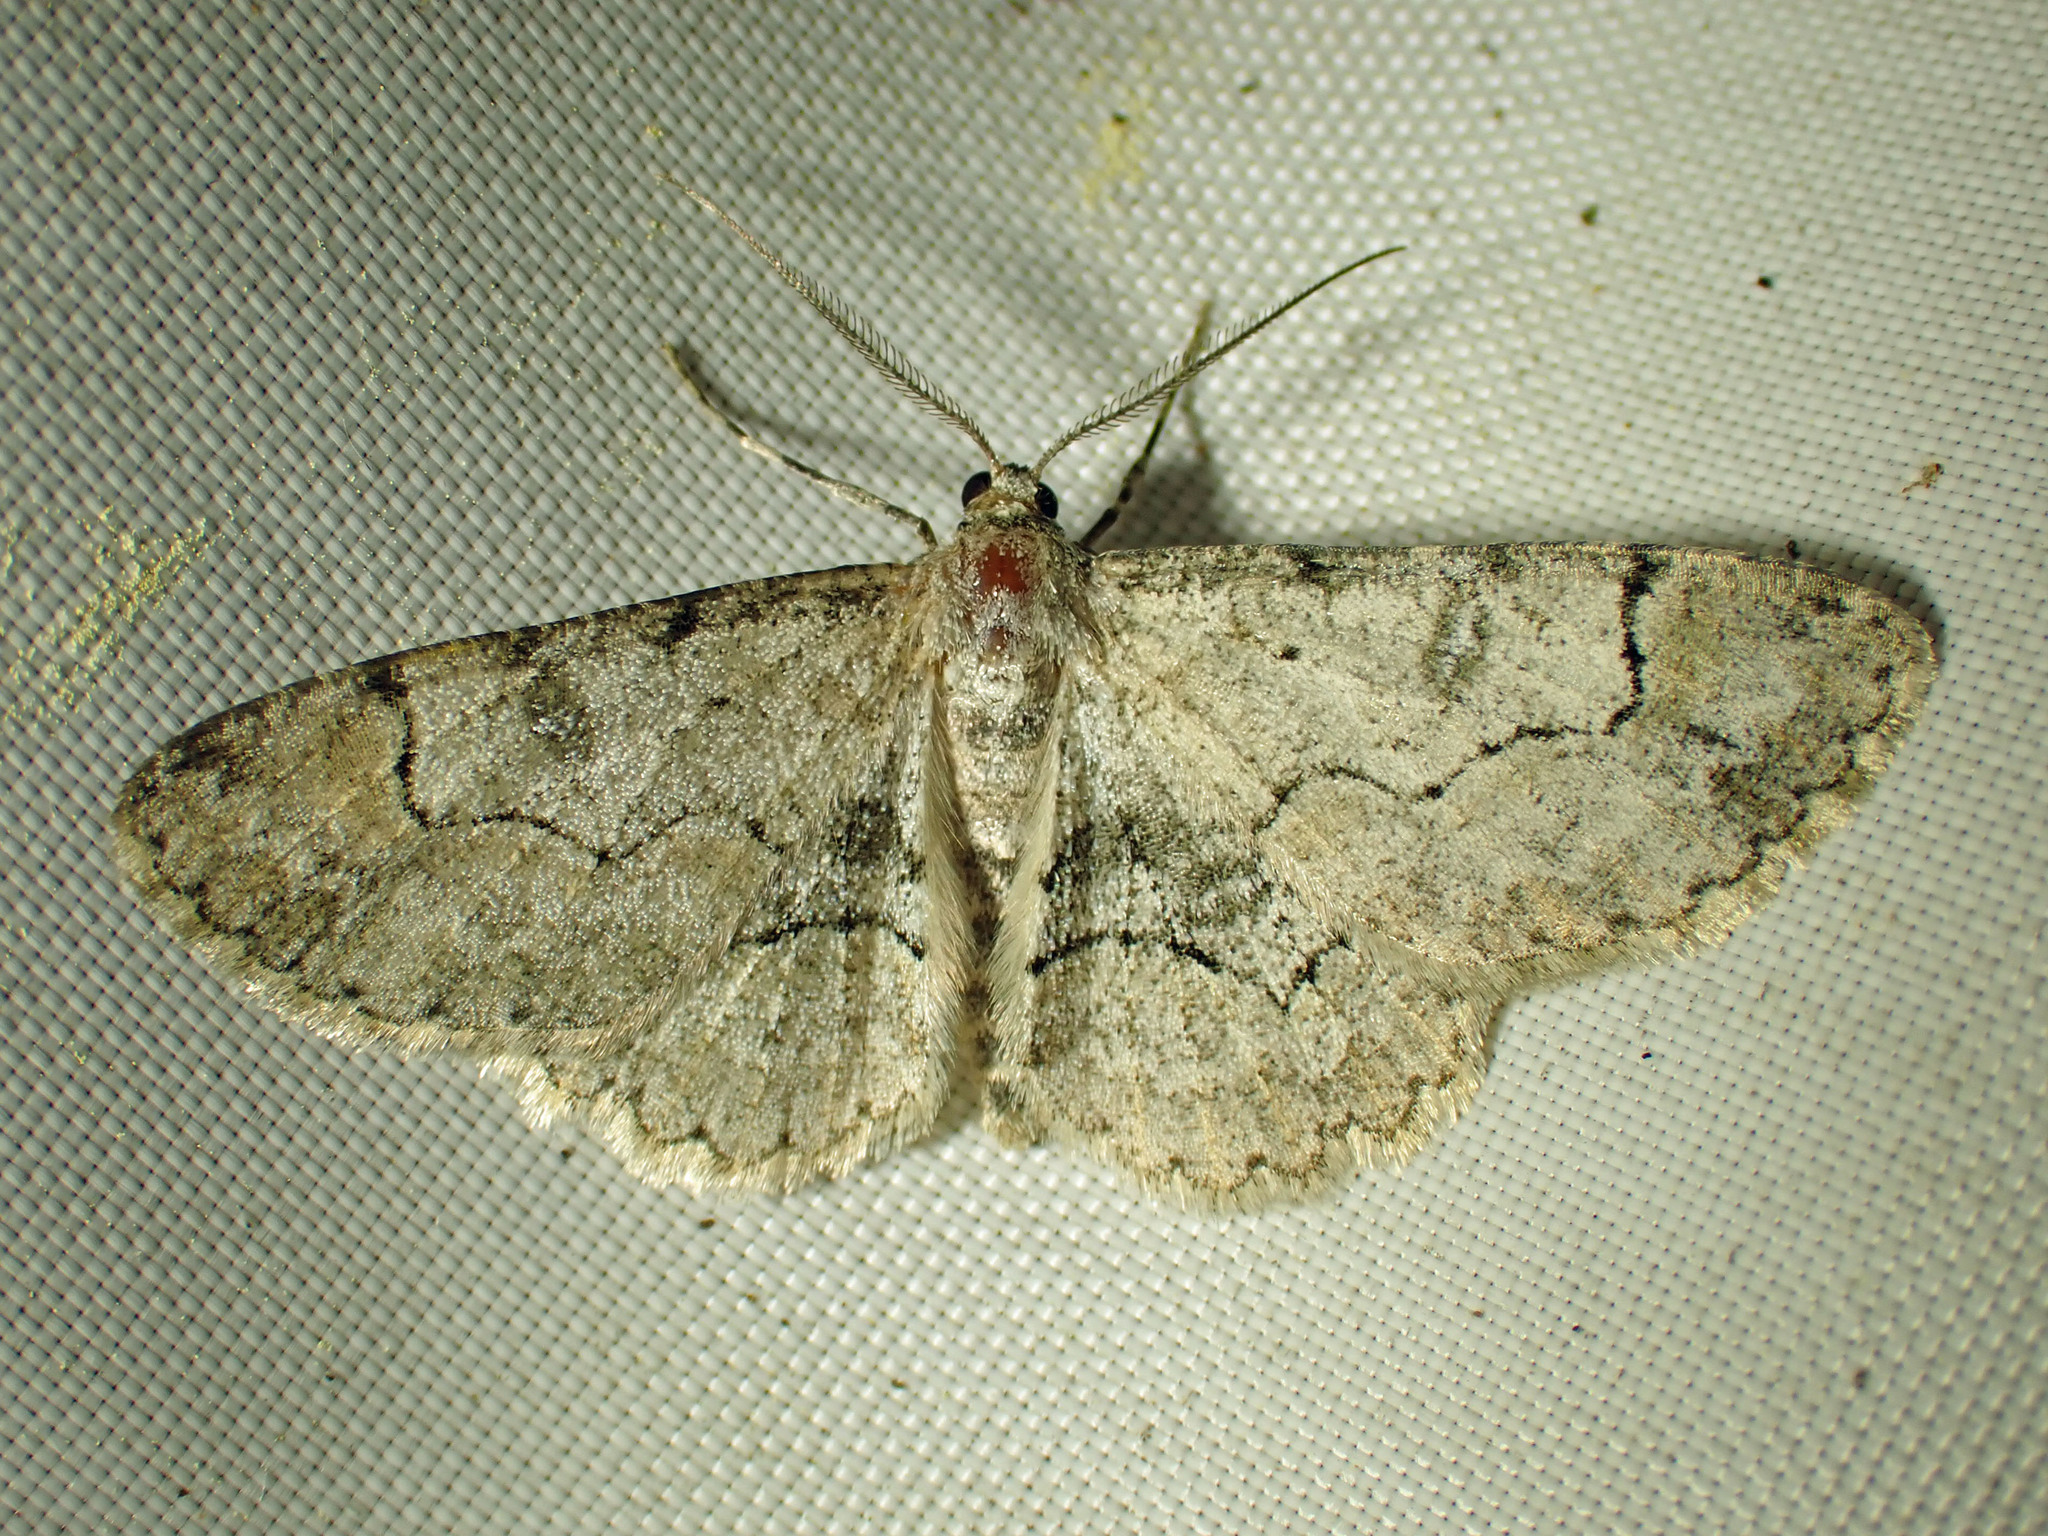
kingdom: Animalia
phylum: Arthropoda
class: Insecta
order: Lepidoptera
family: Geometridae
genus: Iridopsis
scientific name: Iridopsis larvaria
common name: Bent-line gray
